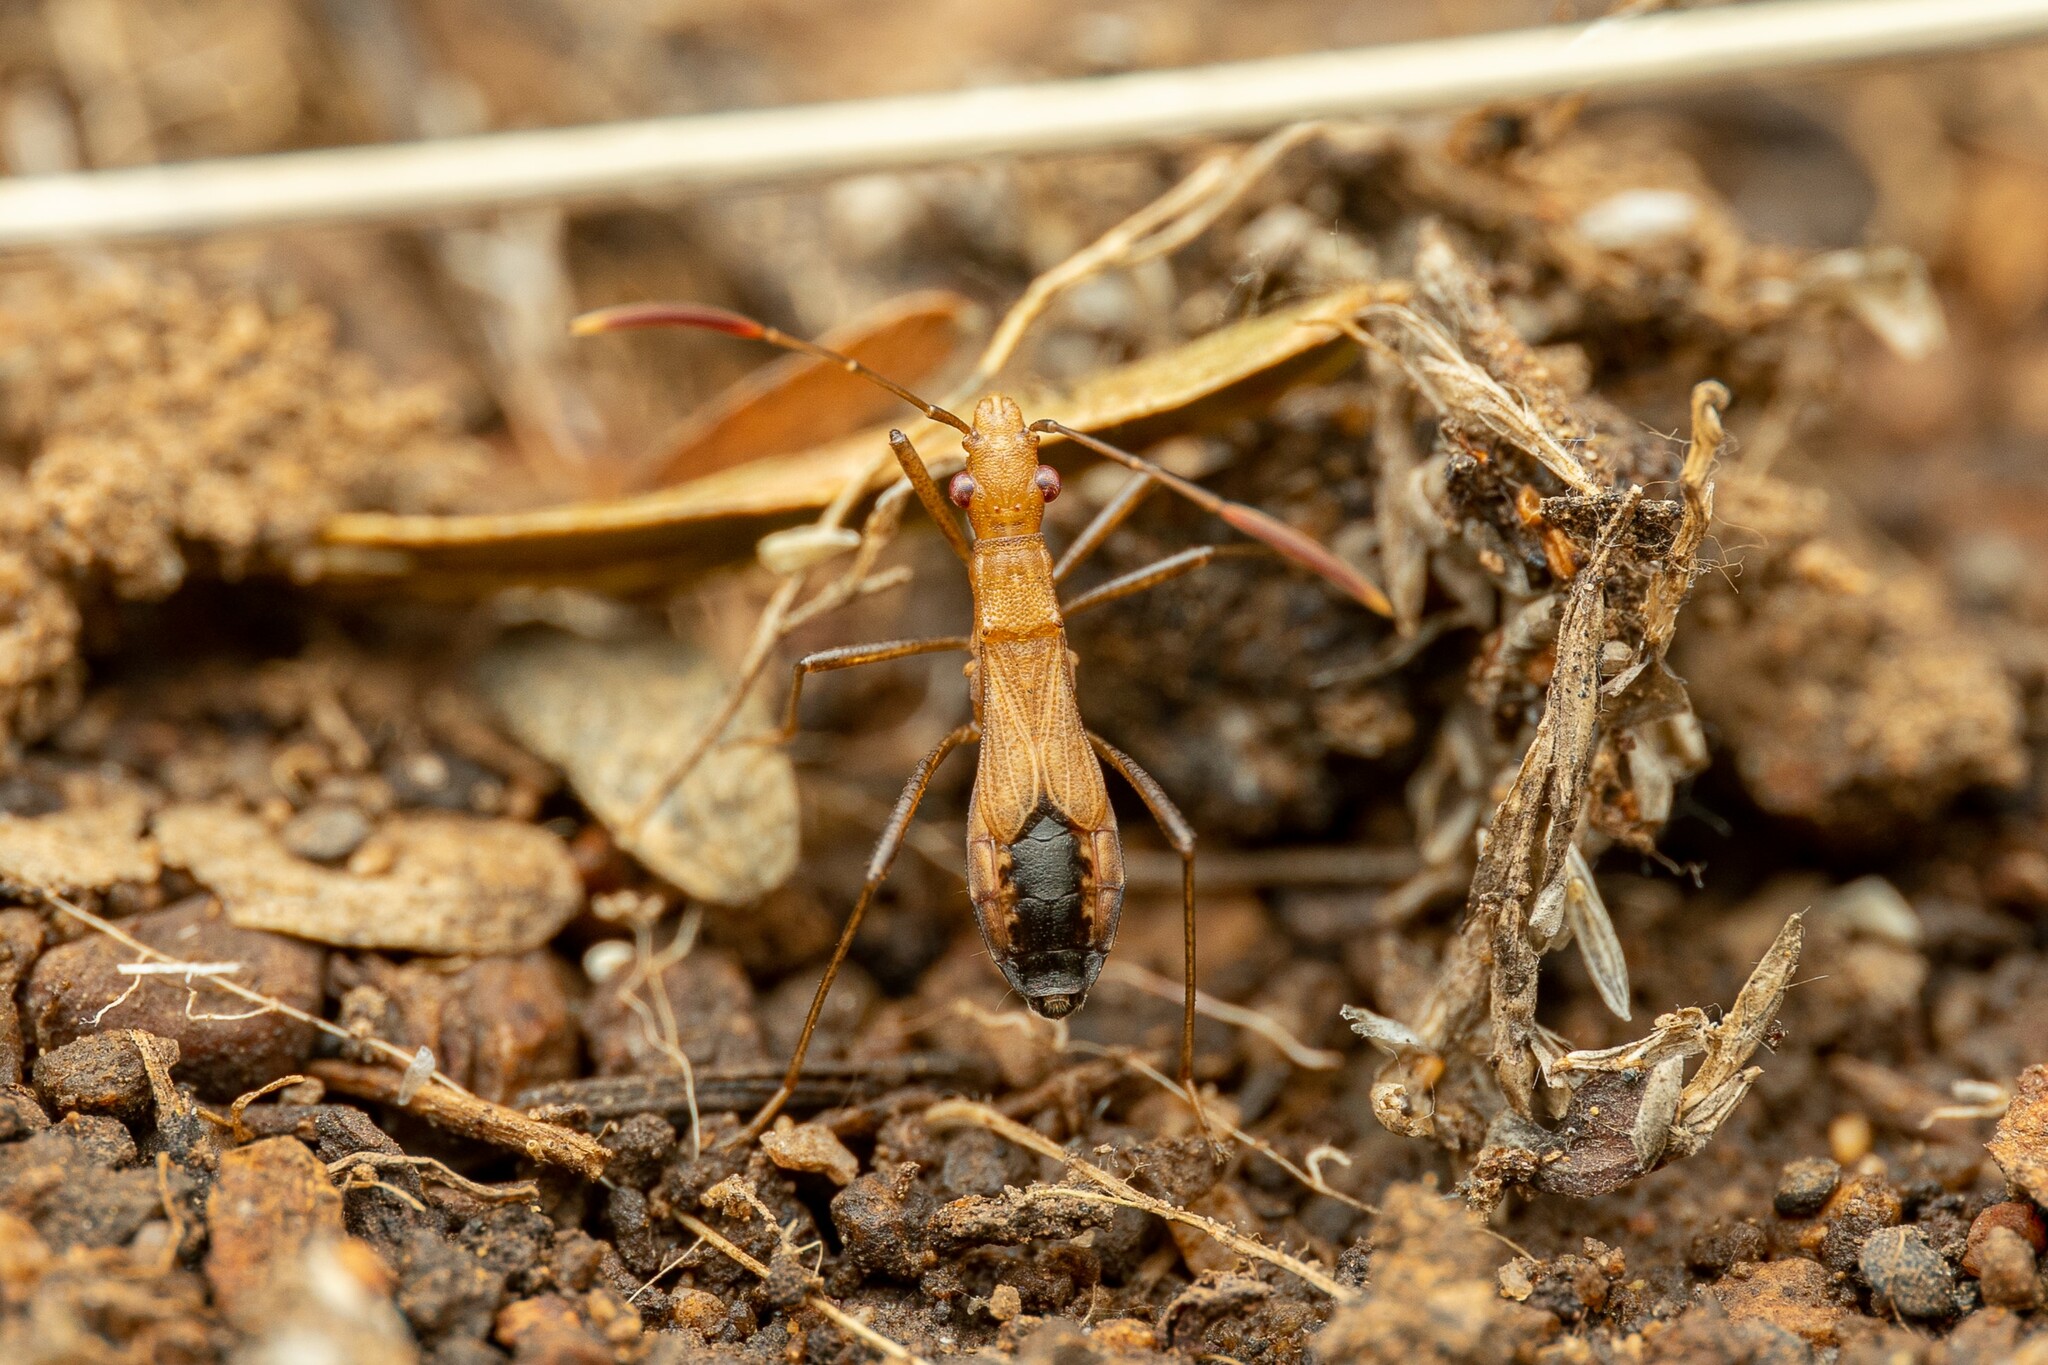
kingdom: Animalia
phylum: Arthropoda
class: Insecta
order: Hemiptera
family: Alydidae
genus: Cydamus
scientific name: Cydamus abditus
